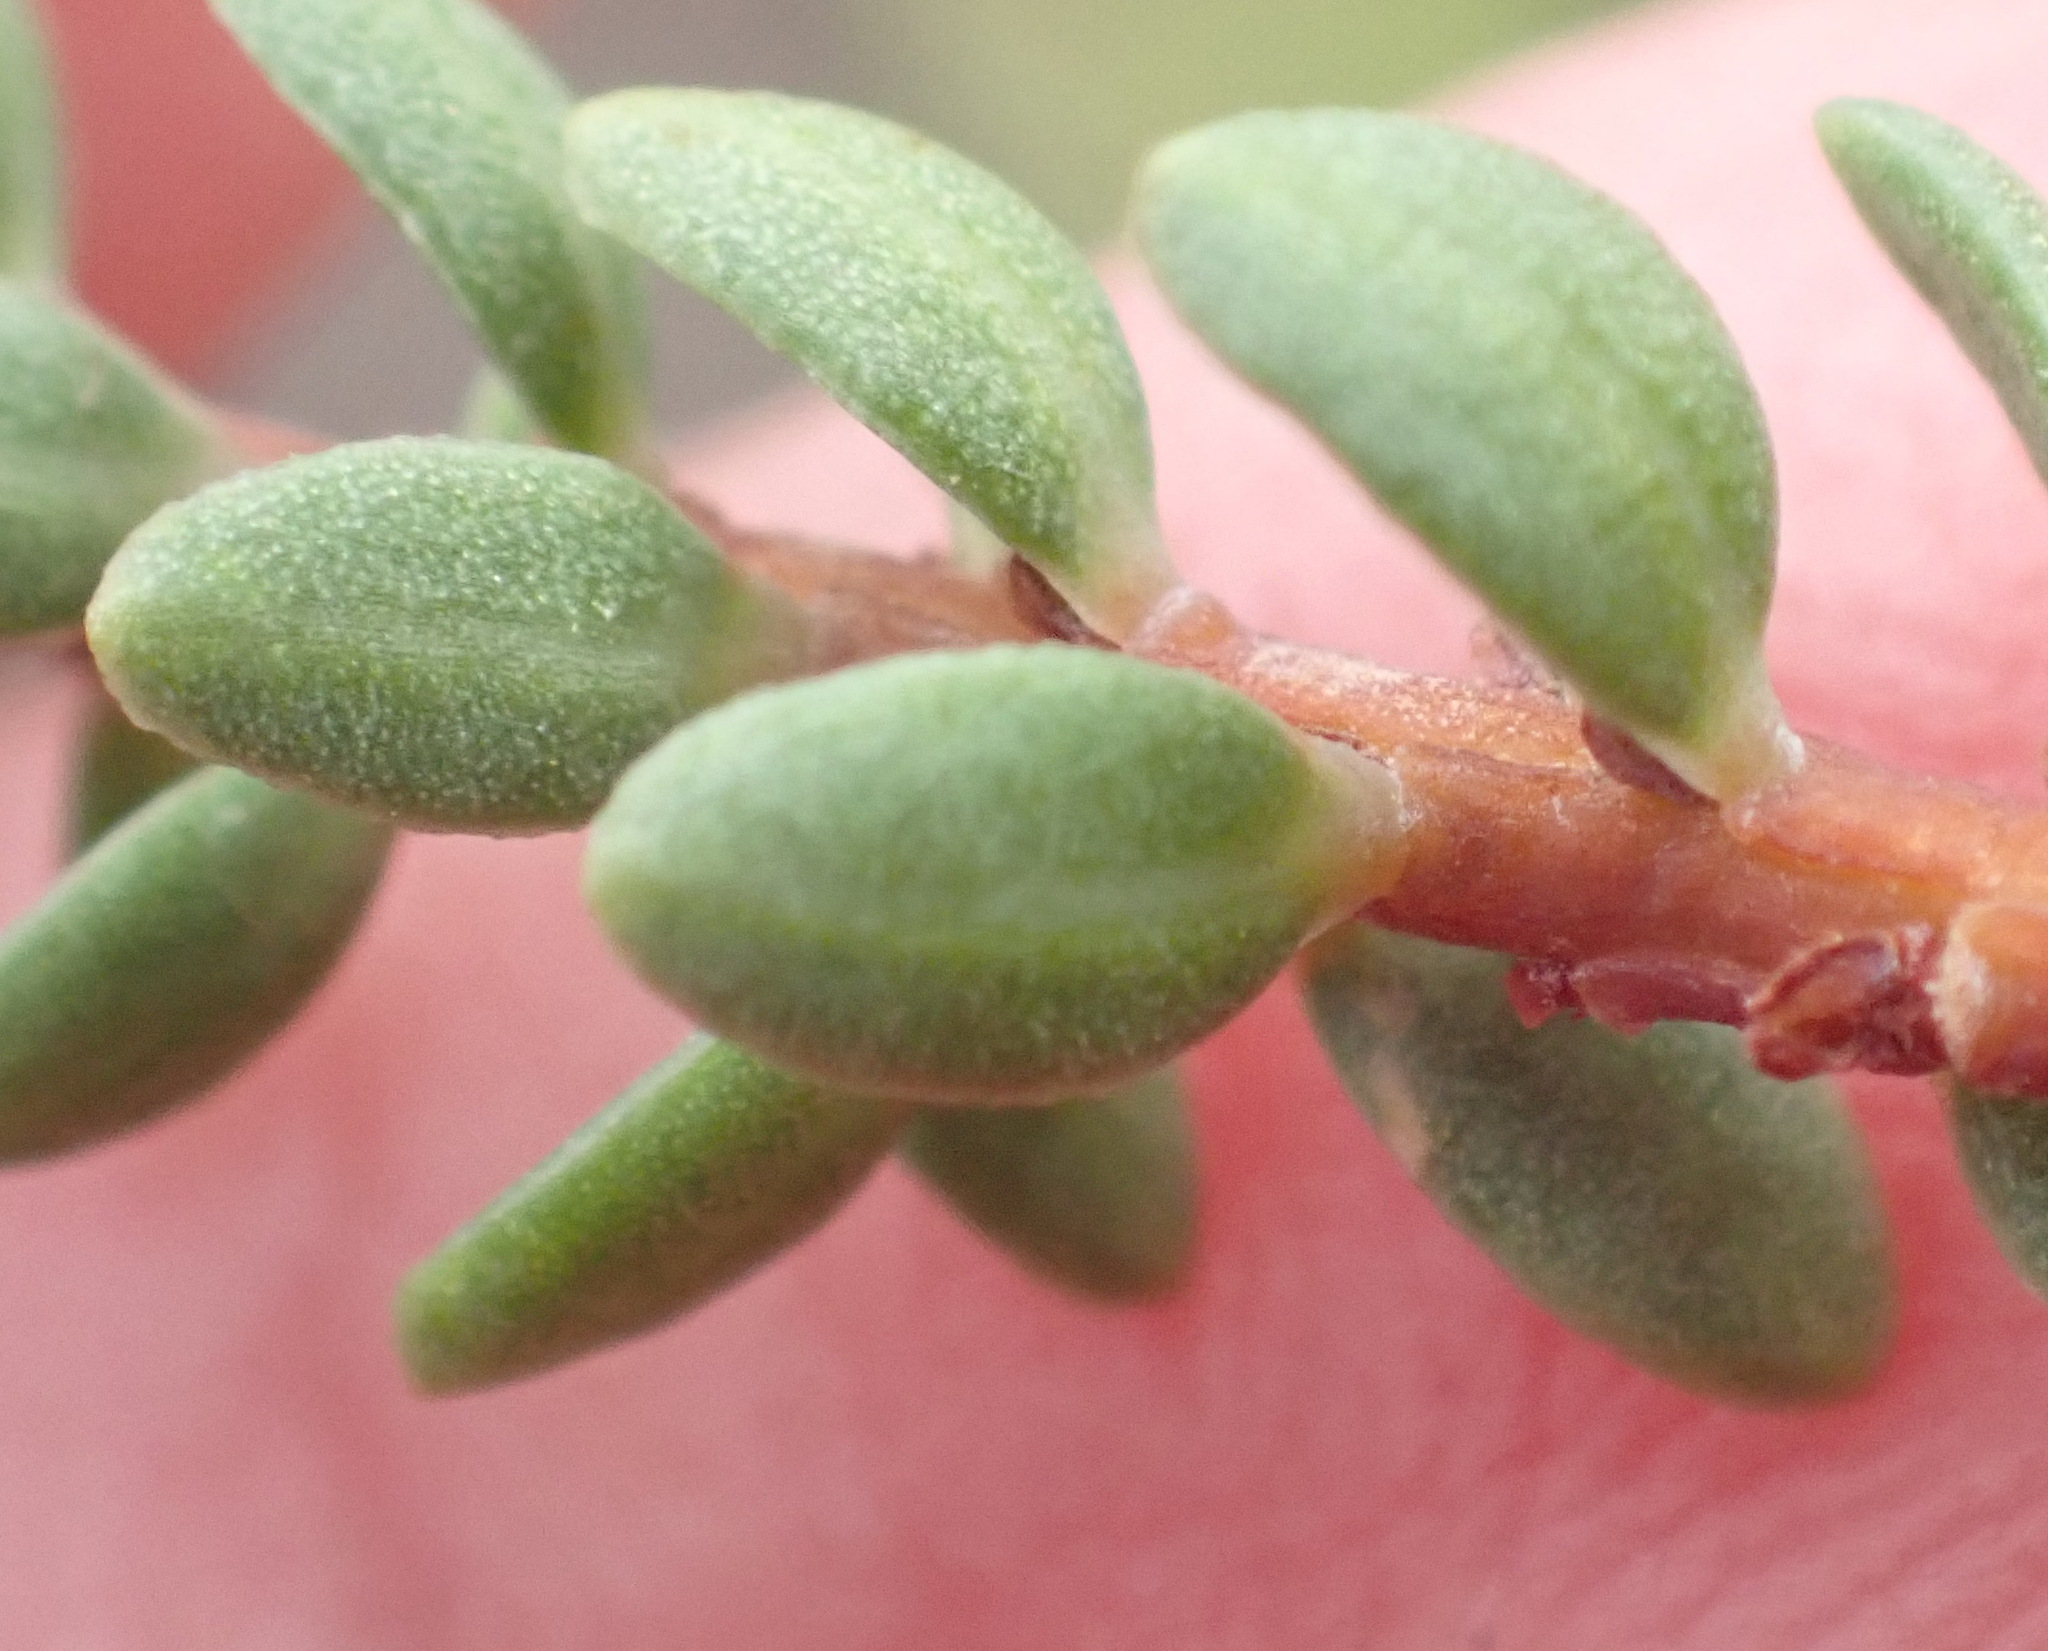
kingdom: Plantae
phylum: Tracheophyta
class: Magnoliopsida
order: Malpighiales
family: Peraceae
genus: Clutia
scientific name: Clutia laxa
